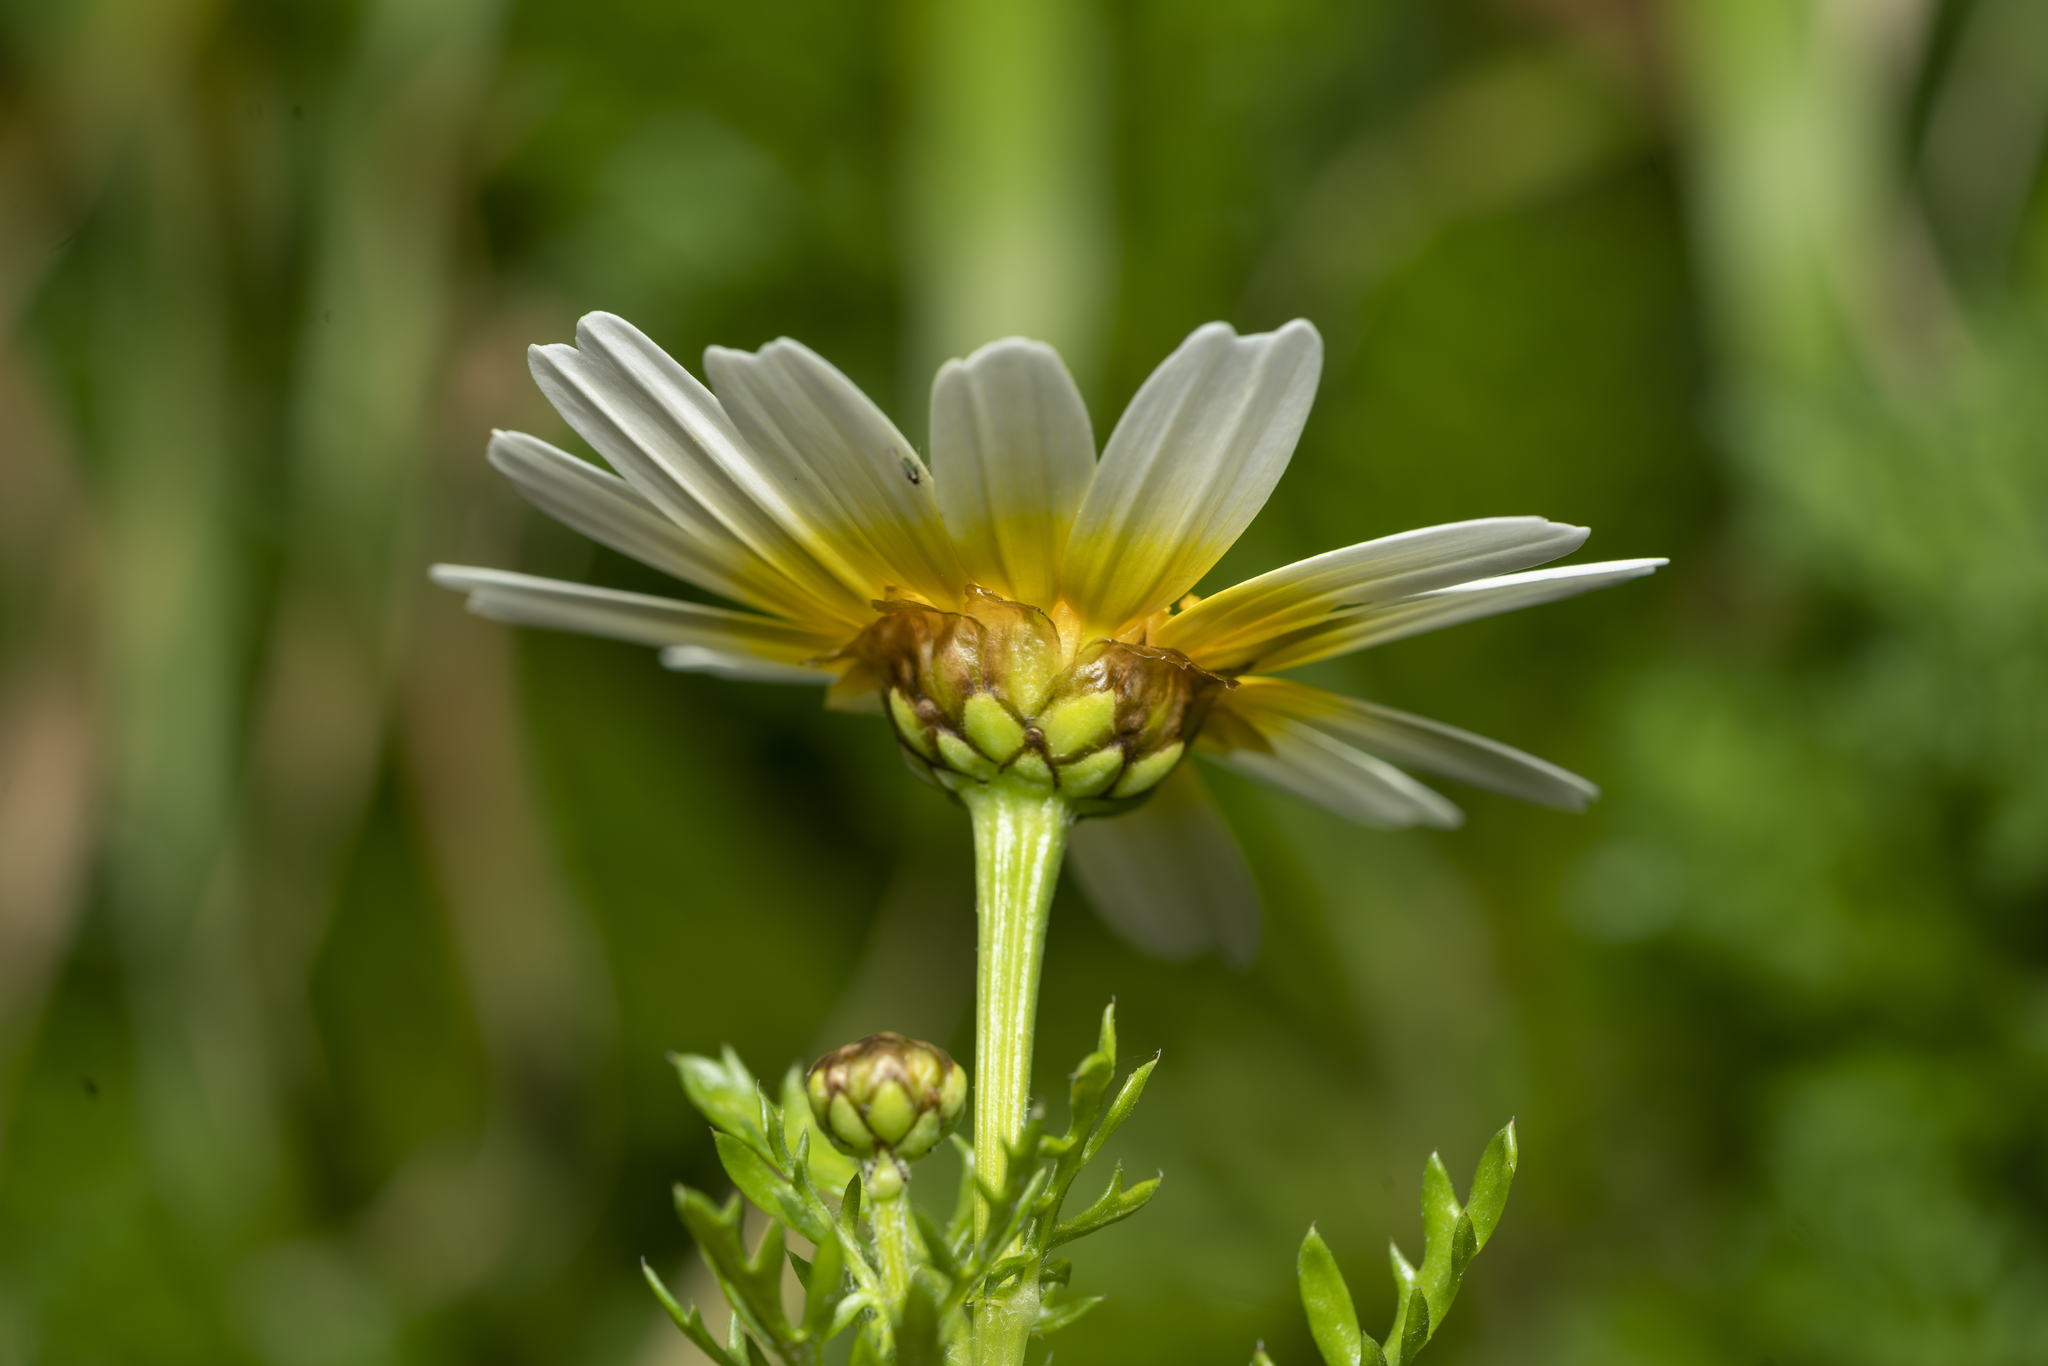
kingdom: Plantae
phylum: Tracheophyta
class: Magnoliopsida
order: Asterales
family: Asteraceae
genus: Glebionis
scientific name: Glebionis coronaria
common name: Crowndaisy
